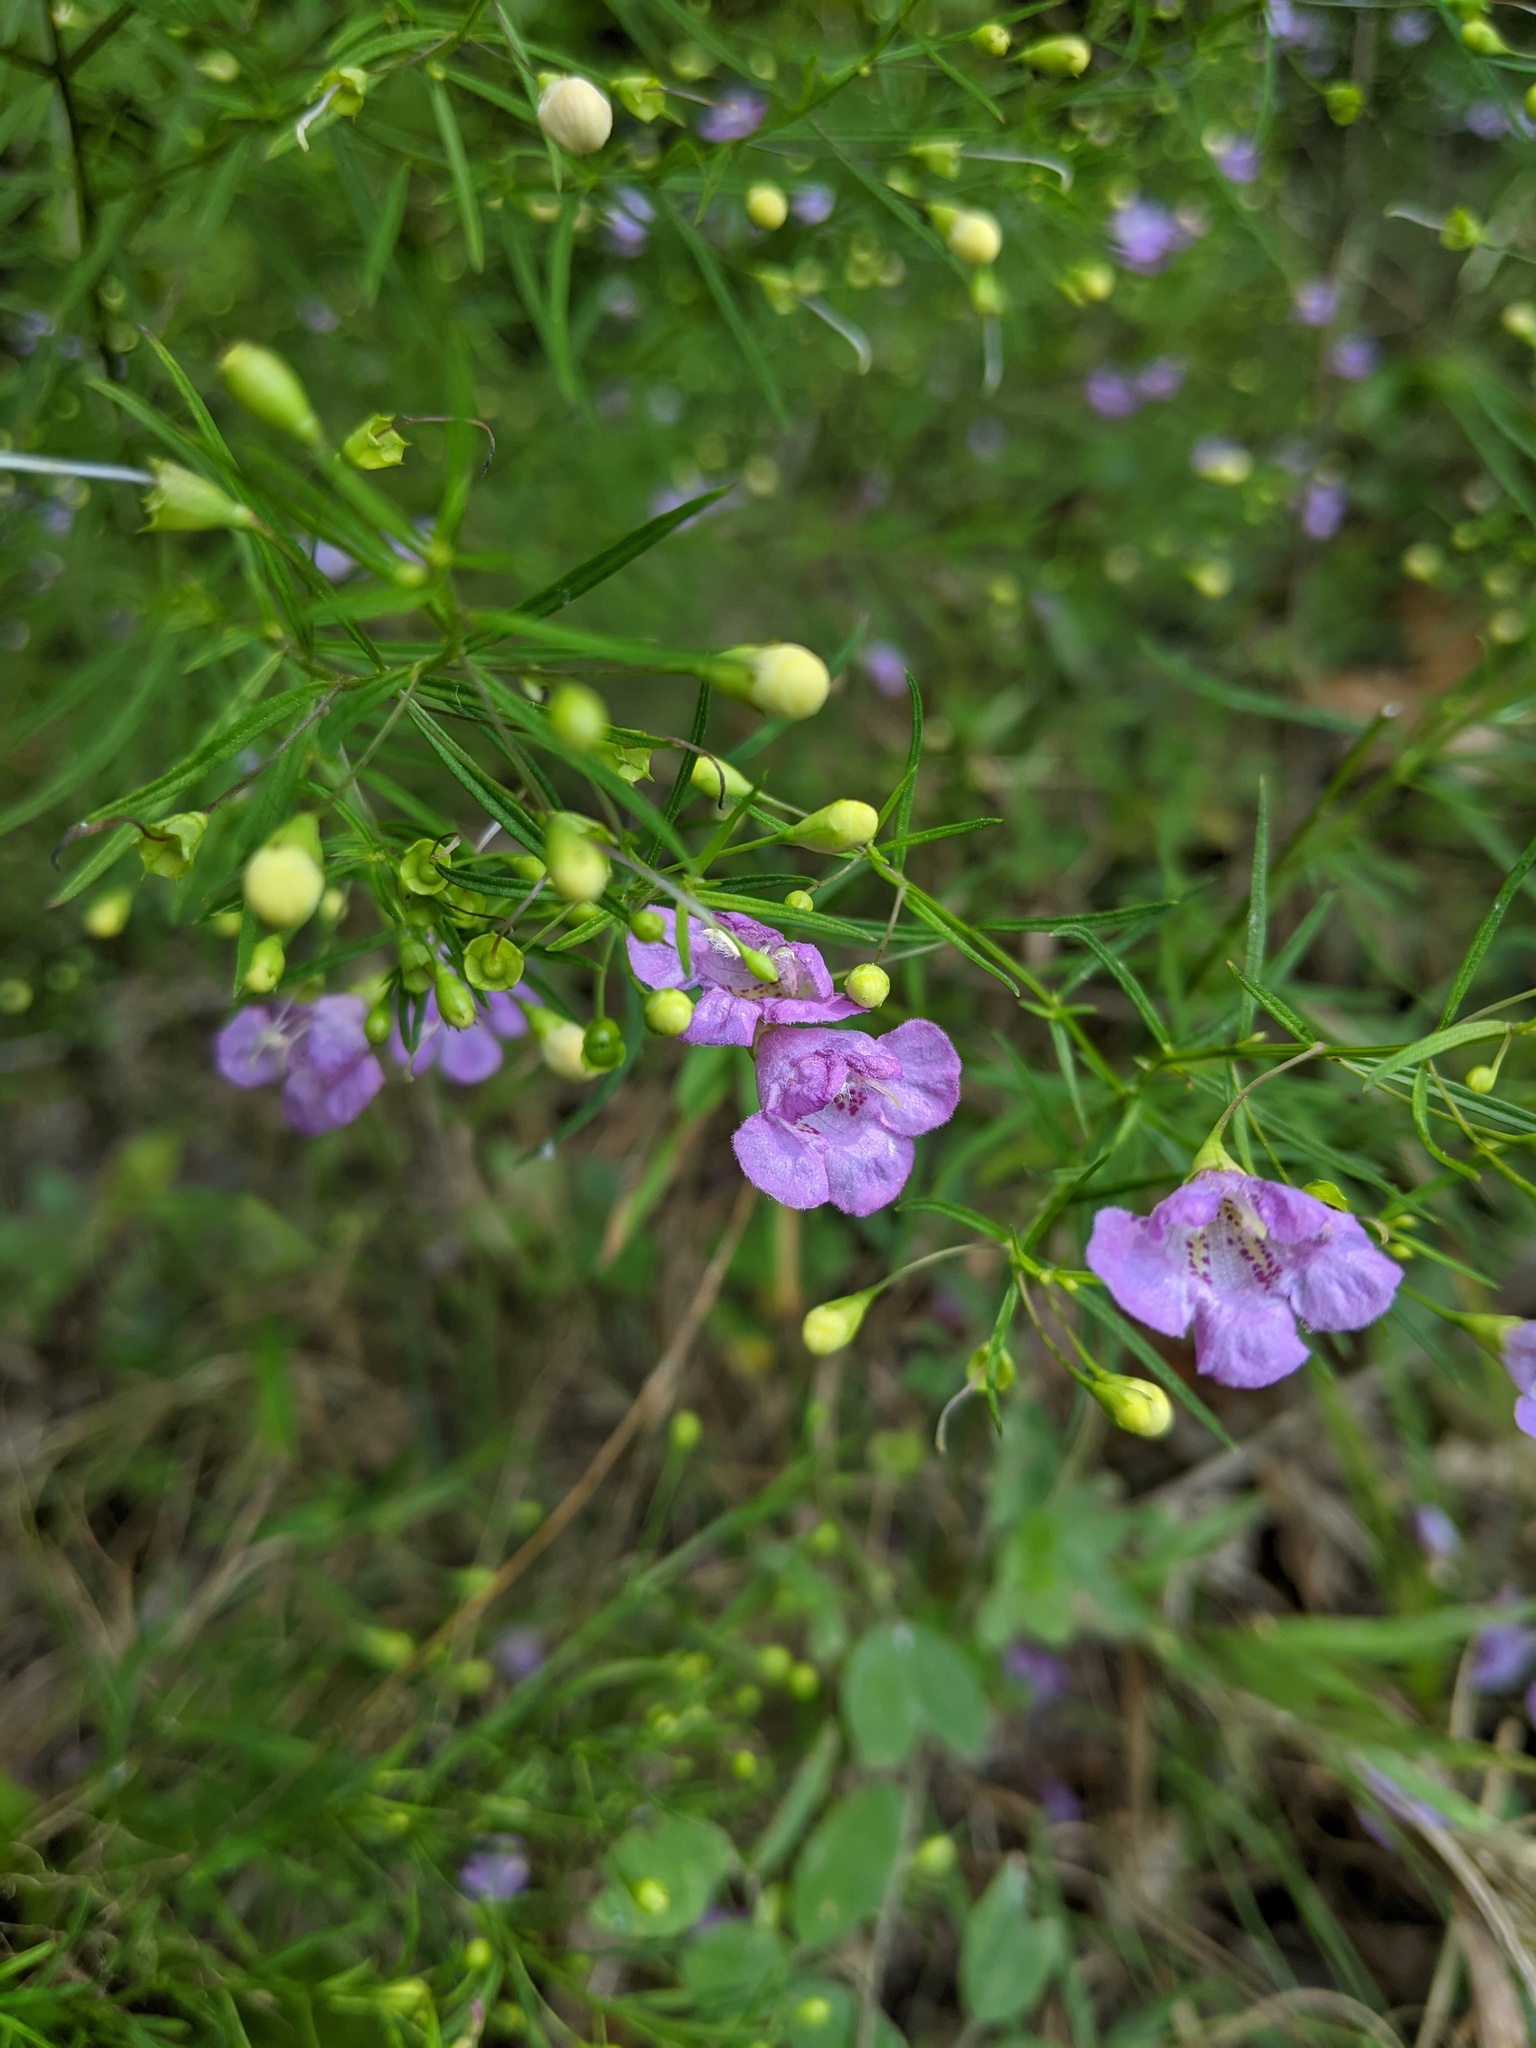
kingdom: Plantae
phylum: Tracheophyta
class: Magnoliopsida
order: Lamiales
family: Orobanchaceae
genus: Agalinis
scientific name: Agalinis gattingeri
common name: Gattinger's agalinis
